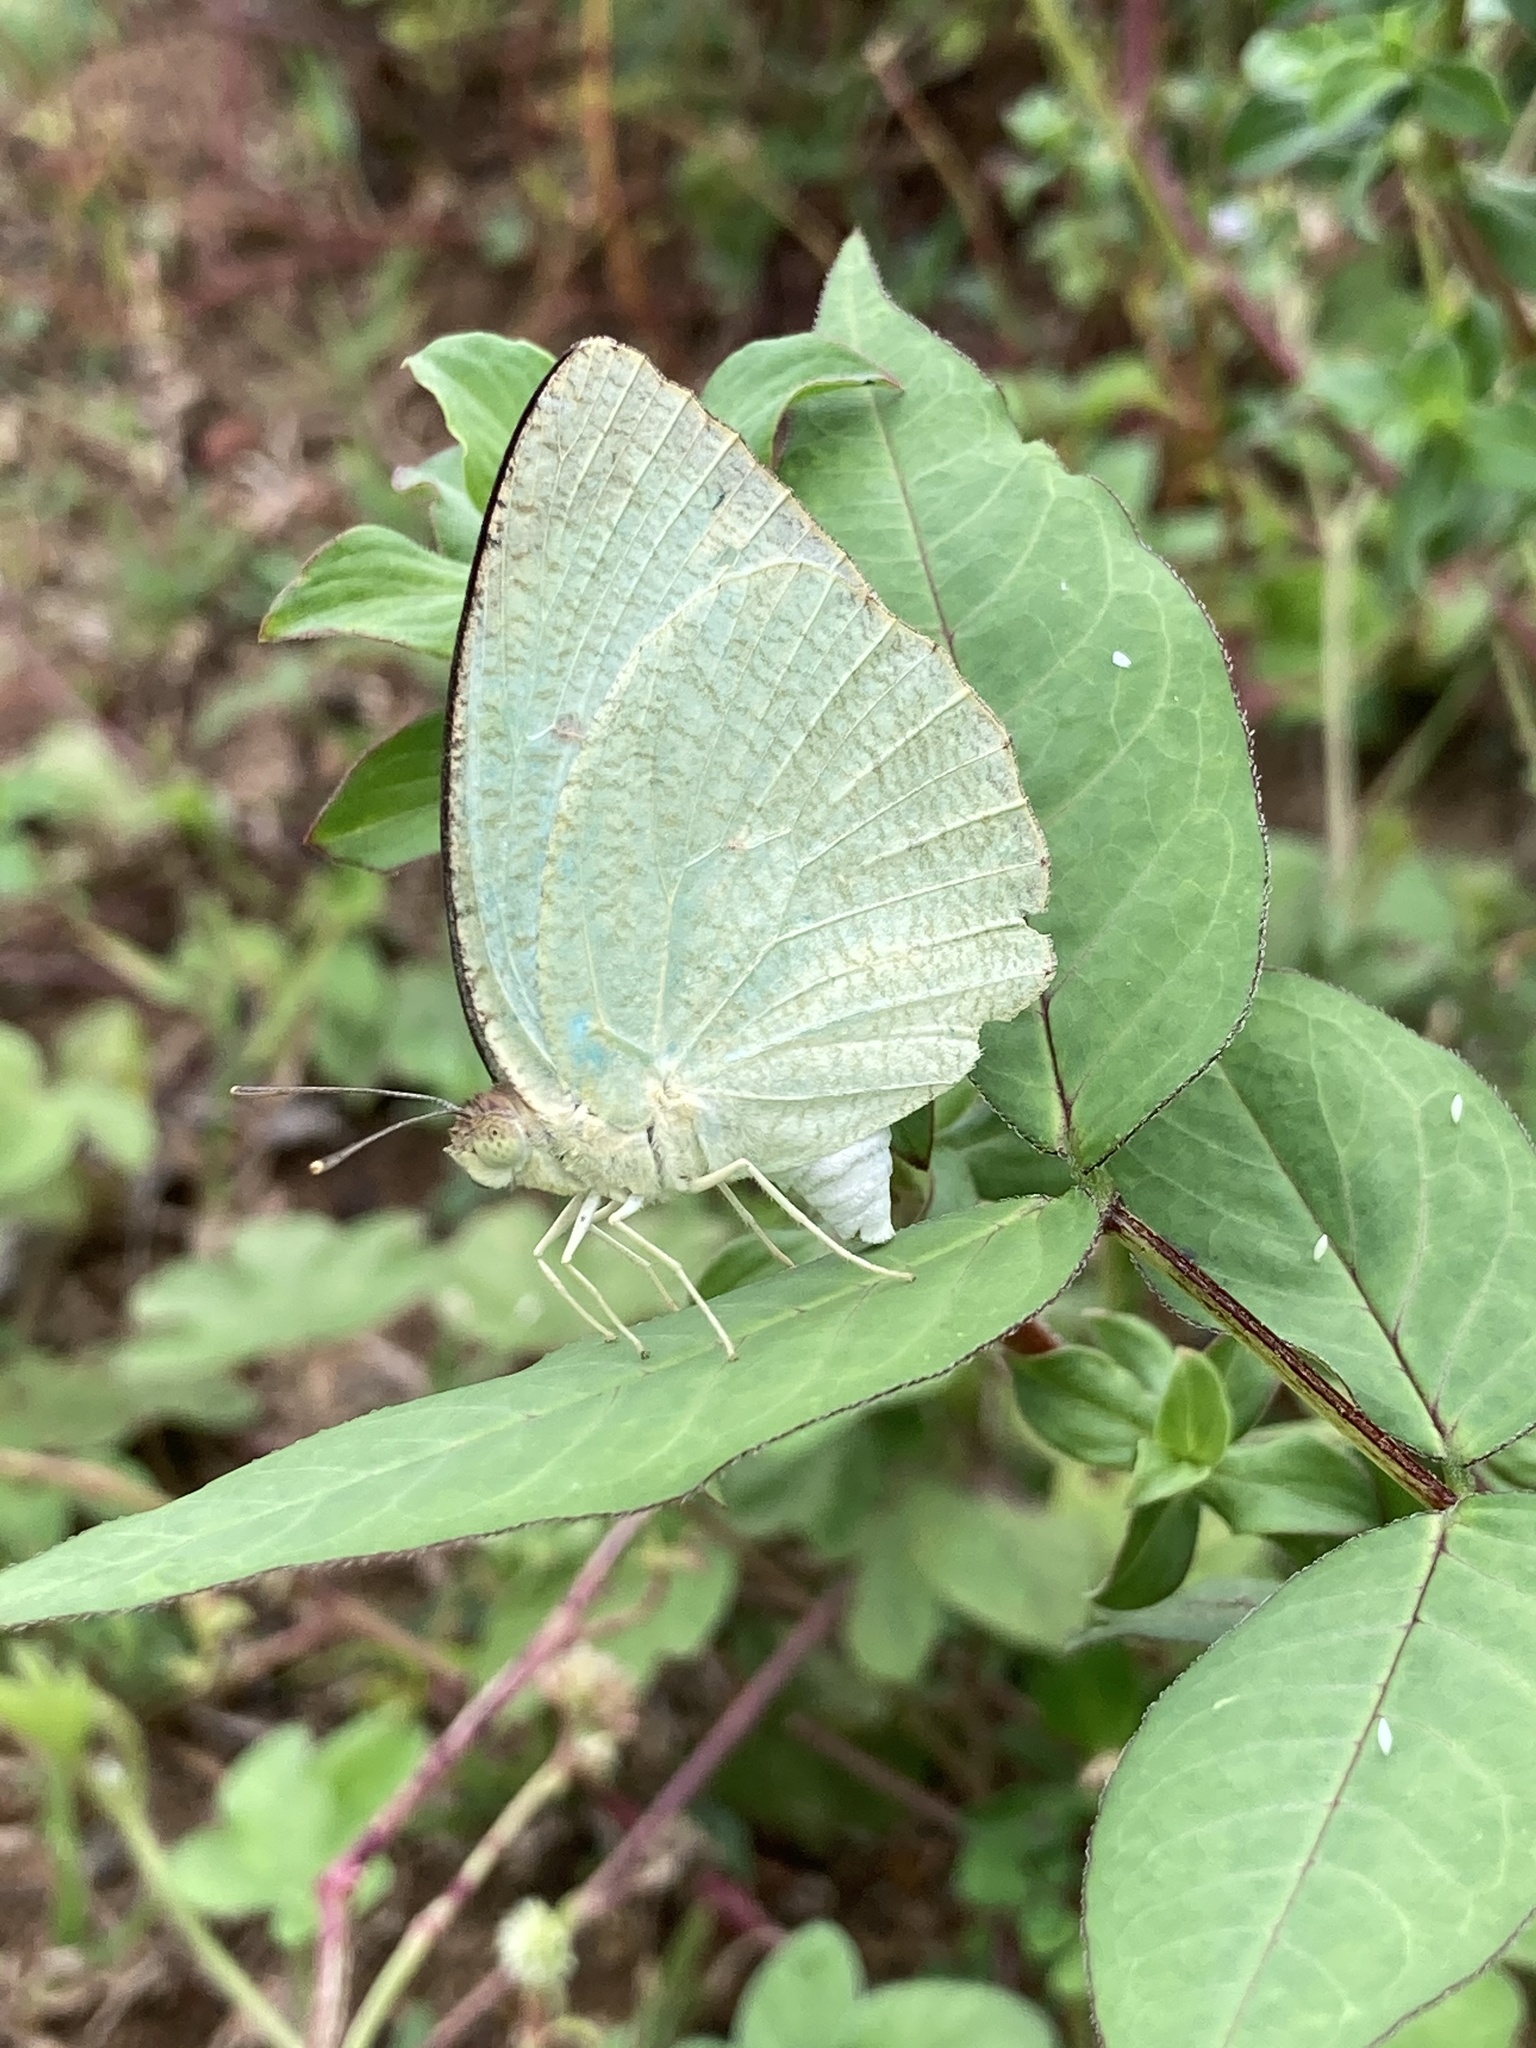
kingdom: Animalia
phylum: Arthropoda
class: Insecta
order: Lepidoptera
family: Pieridae
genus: Catopsilia
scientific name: Catopsilia pyranthe
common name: Mottled emigrant
